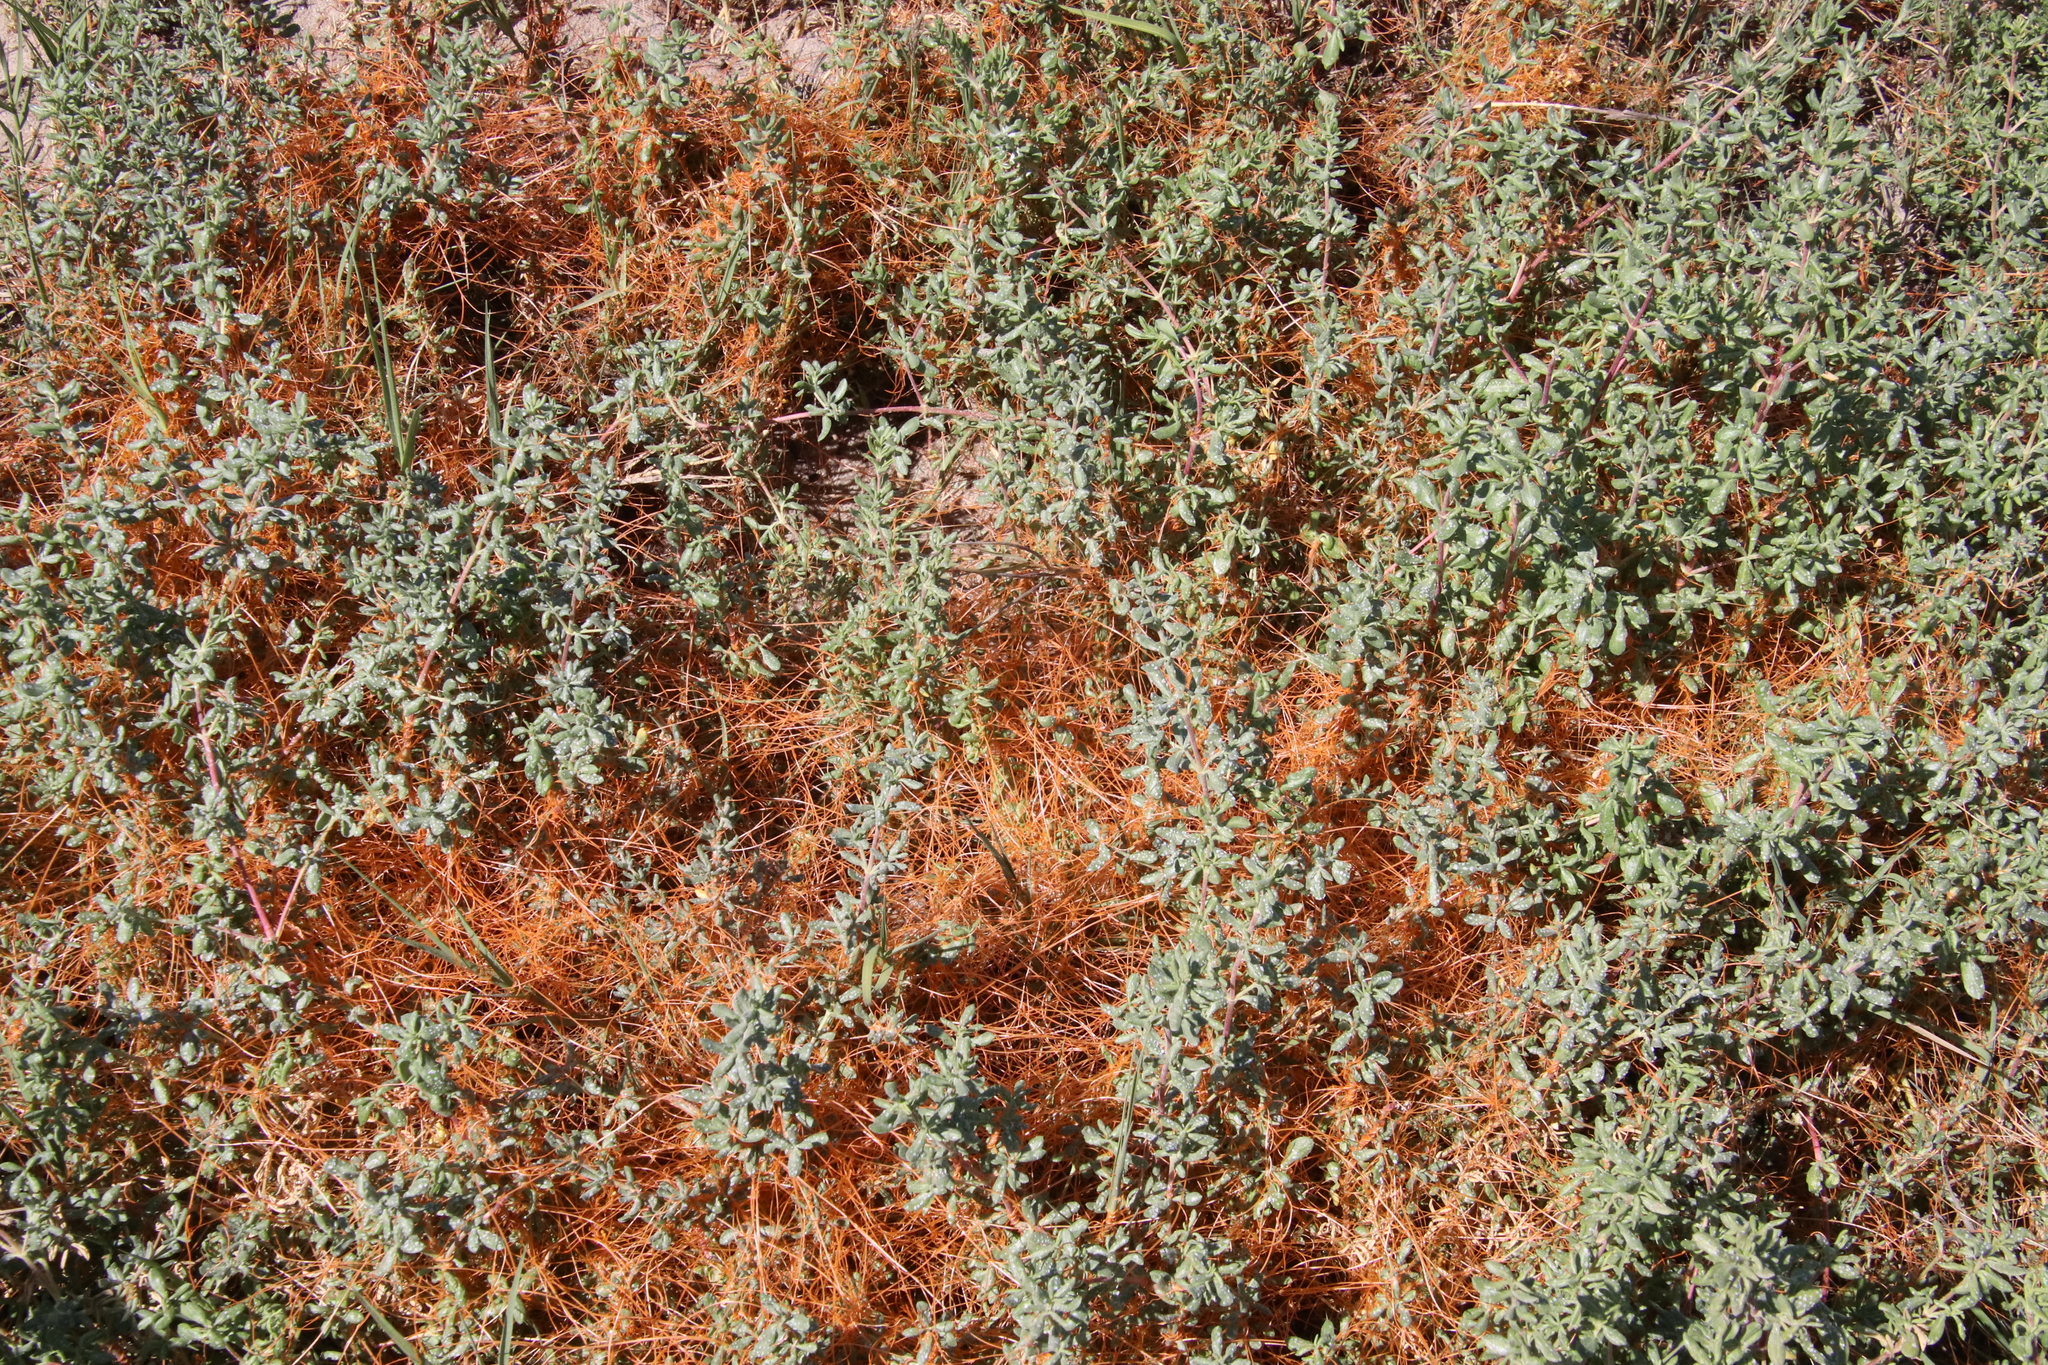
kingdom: Plantae
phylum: Tracheophyta
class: Magnoliopsida
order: Solanales
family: Convolvulaceae
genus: Cuscuta
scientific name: Cuscuta pacifica
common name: Large saltmarsh dodder
